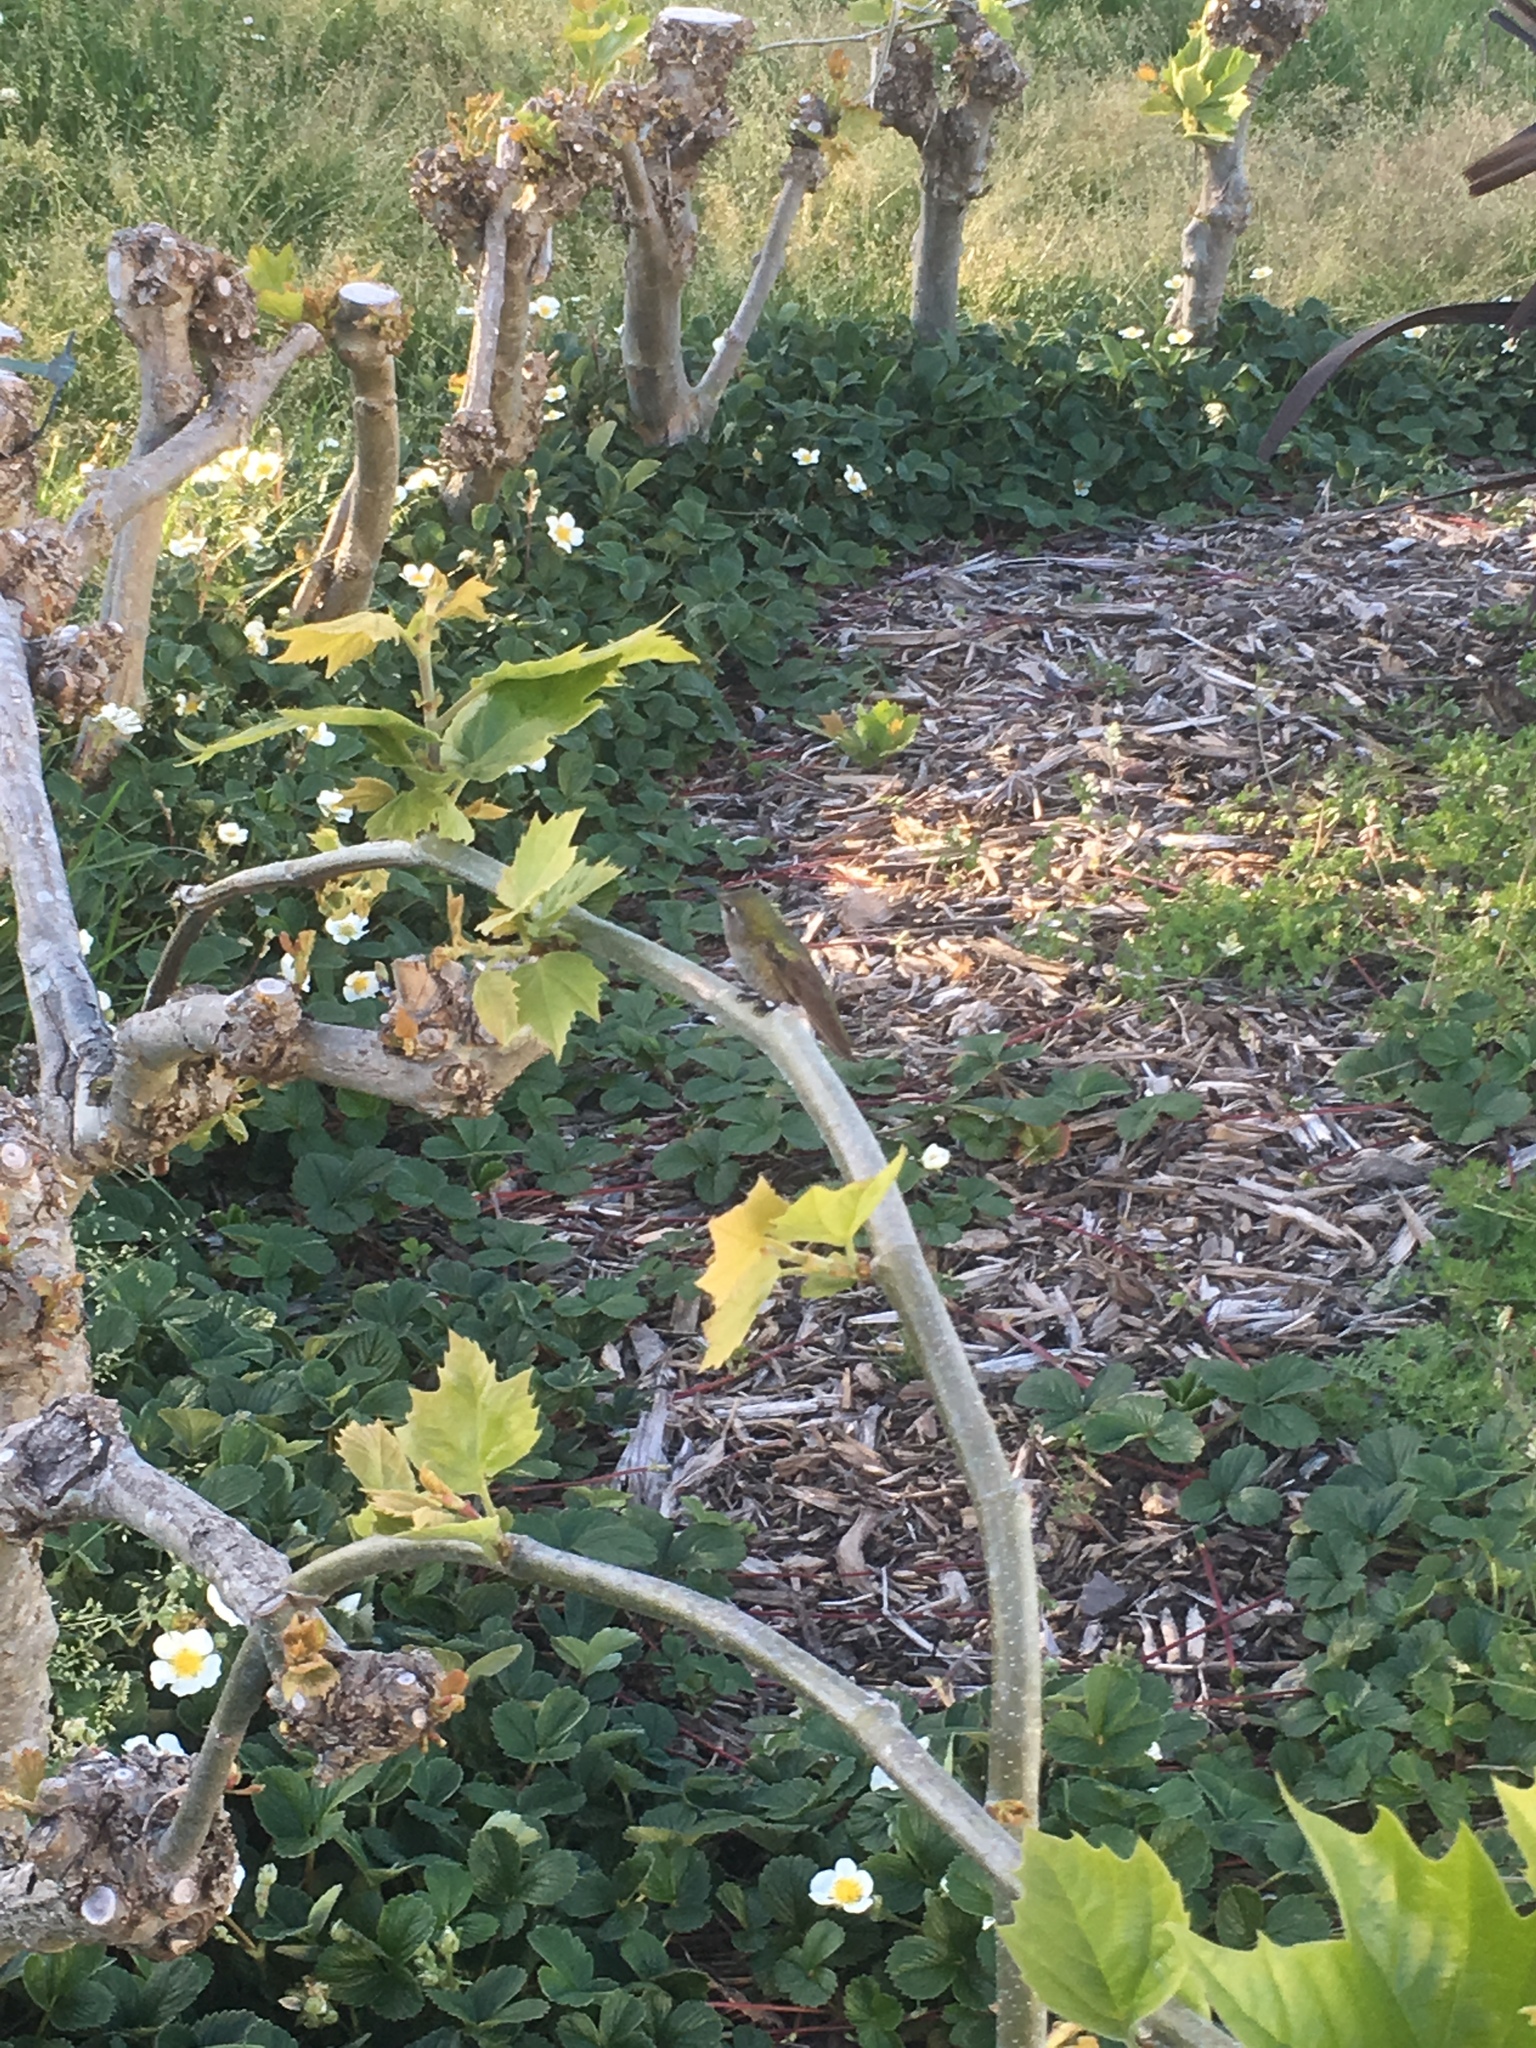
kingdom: Animalia
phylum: Chordata
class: Aves
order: Apodiformes
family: Trochilidae
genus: Calypte
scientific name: Calypte anna
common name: Anna's hummingbird
